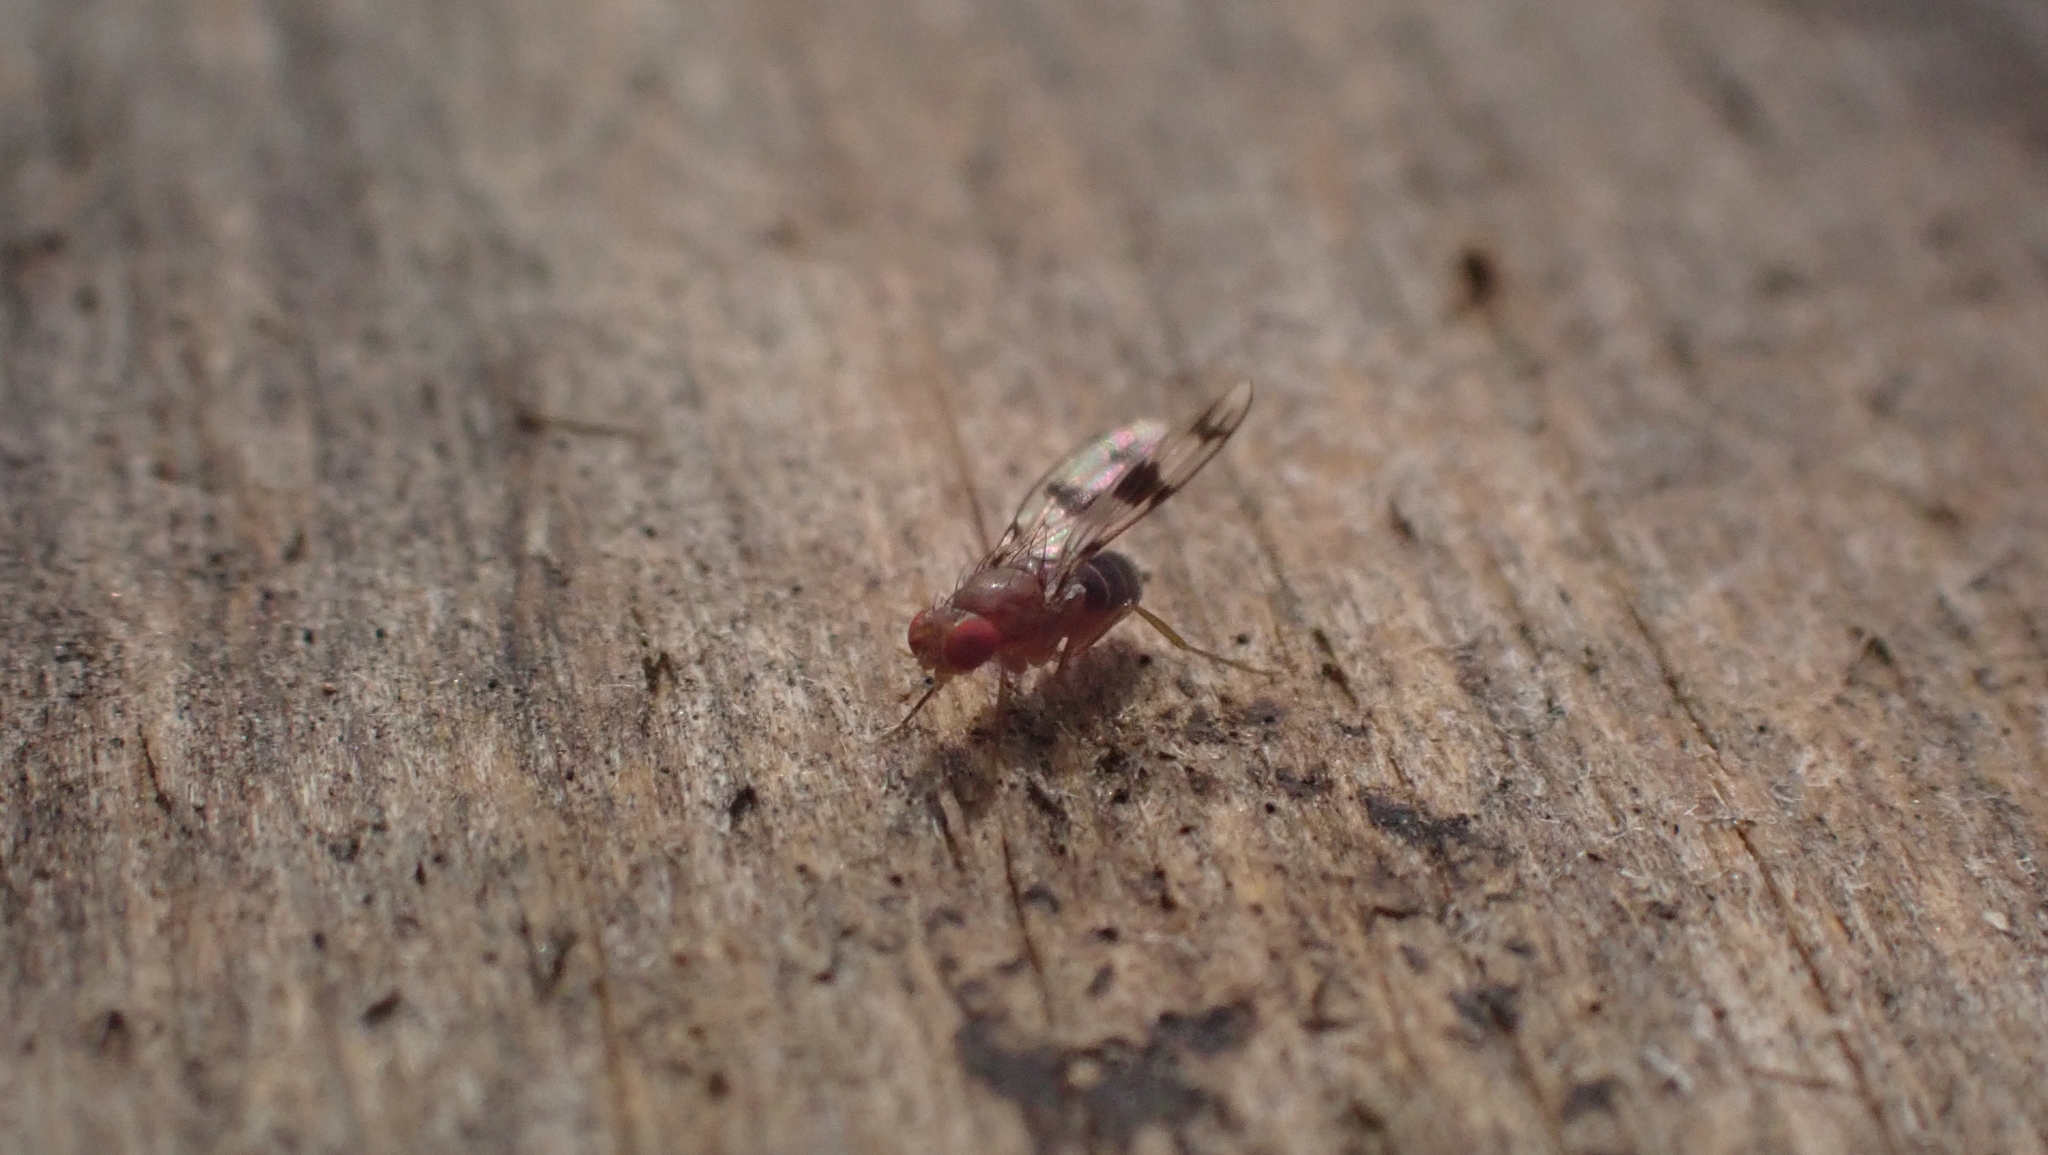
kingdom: Animalia
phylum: Arthropoda
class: Insecta
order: Diptera
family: Drosophilidae
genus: Chymomyza
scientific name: Chymomyza amoena
